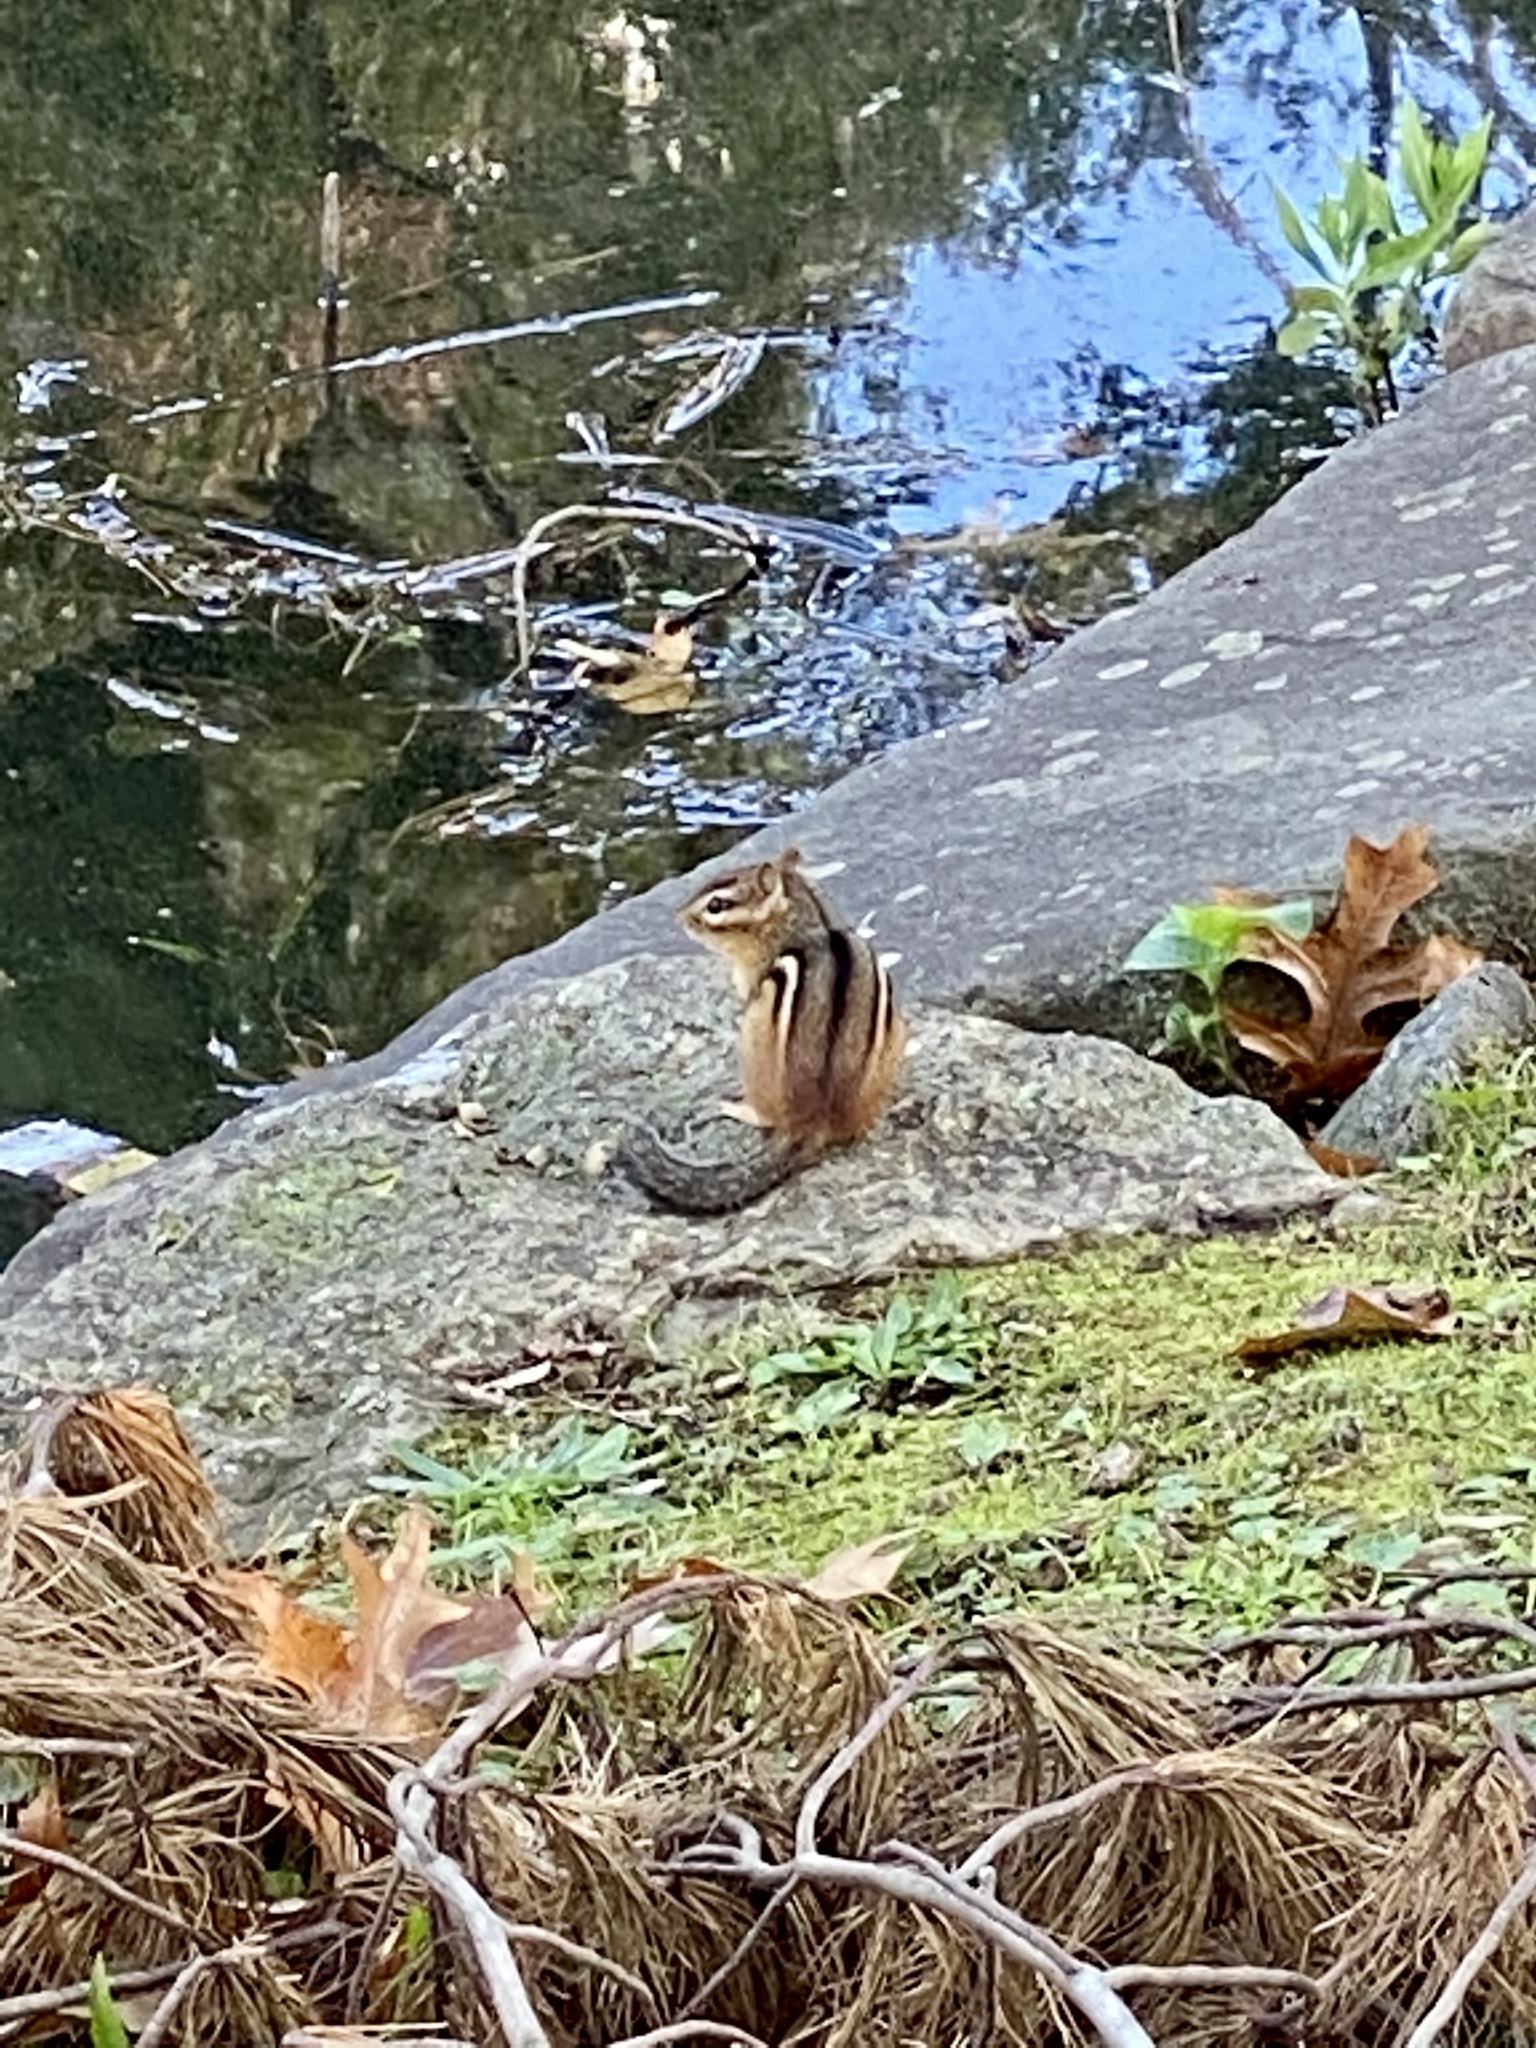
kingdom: Animalia
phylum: Chordata
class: Mammalia
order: Rodentia
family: Sciuridae
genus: Tamias
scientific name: Tamias striatus
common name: Eastern chipmunk
